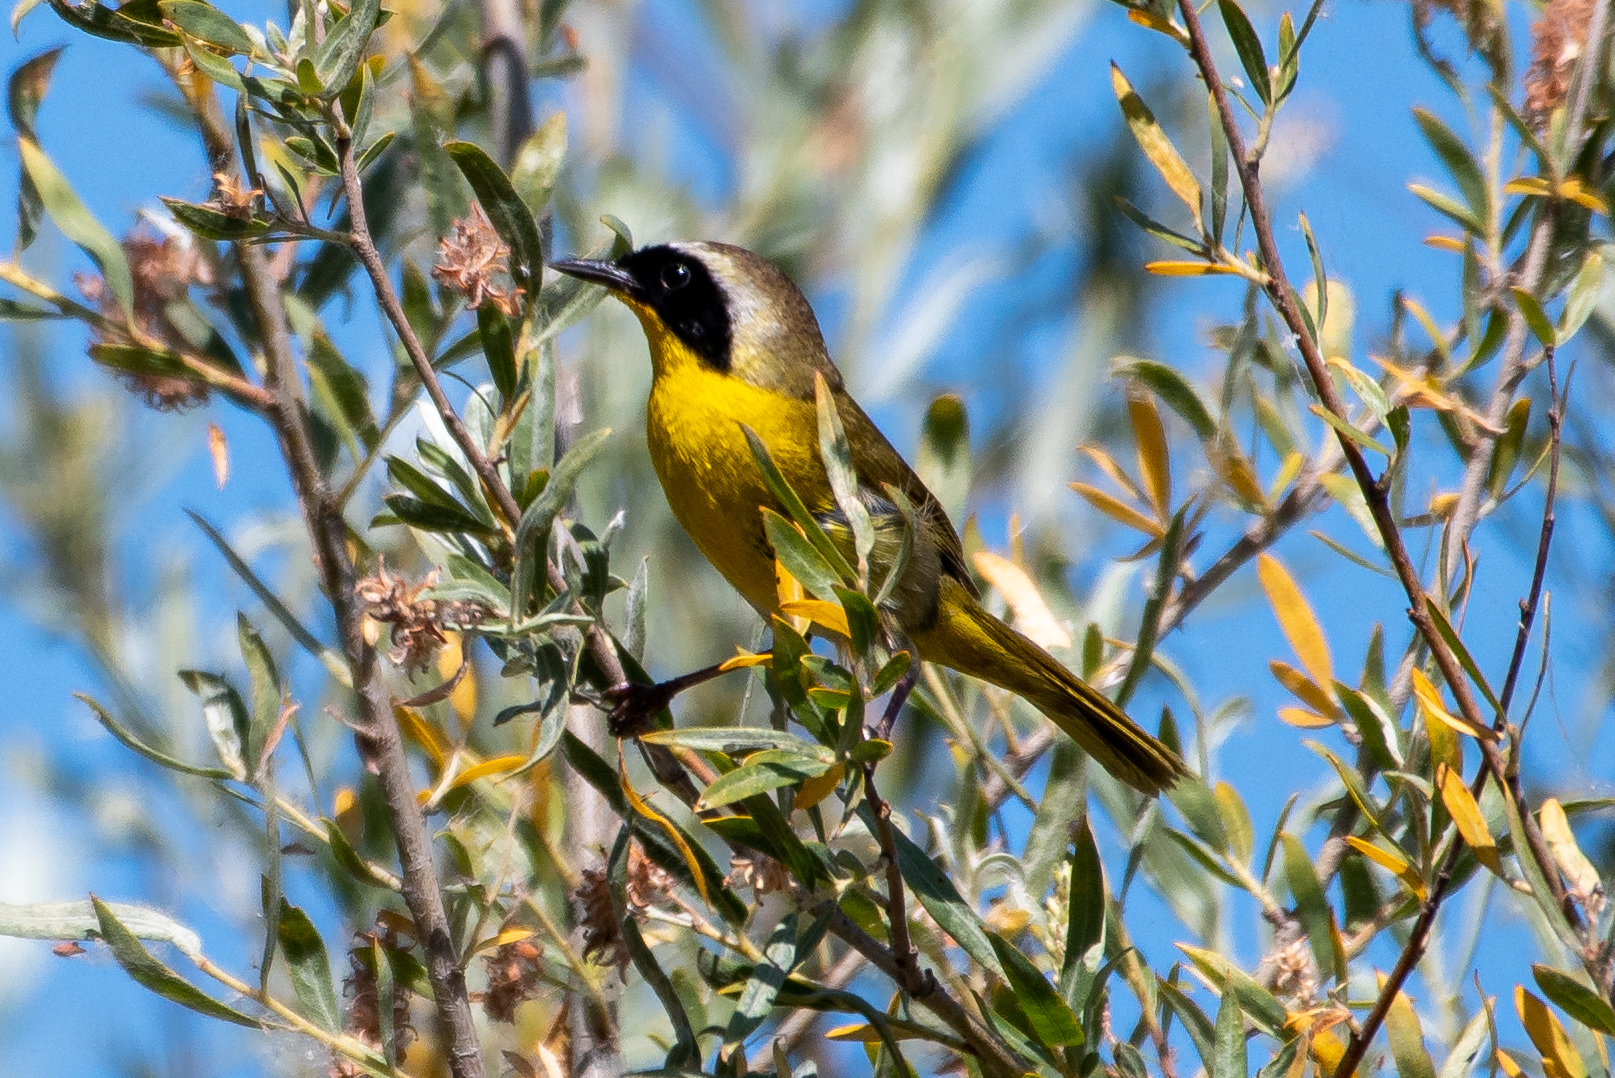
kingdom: Animalia
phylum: Chordata
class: Aves
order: Passeriformes
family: Parulidae
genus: Geothlypis
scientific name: Geothlypis trichas
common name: Common yellowthroat
